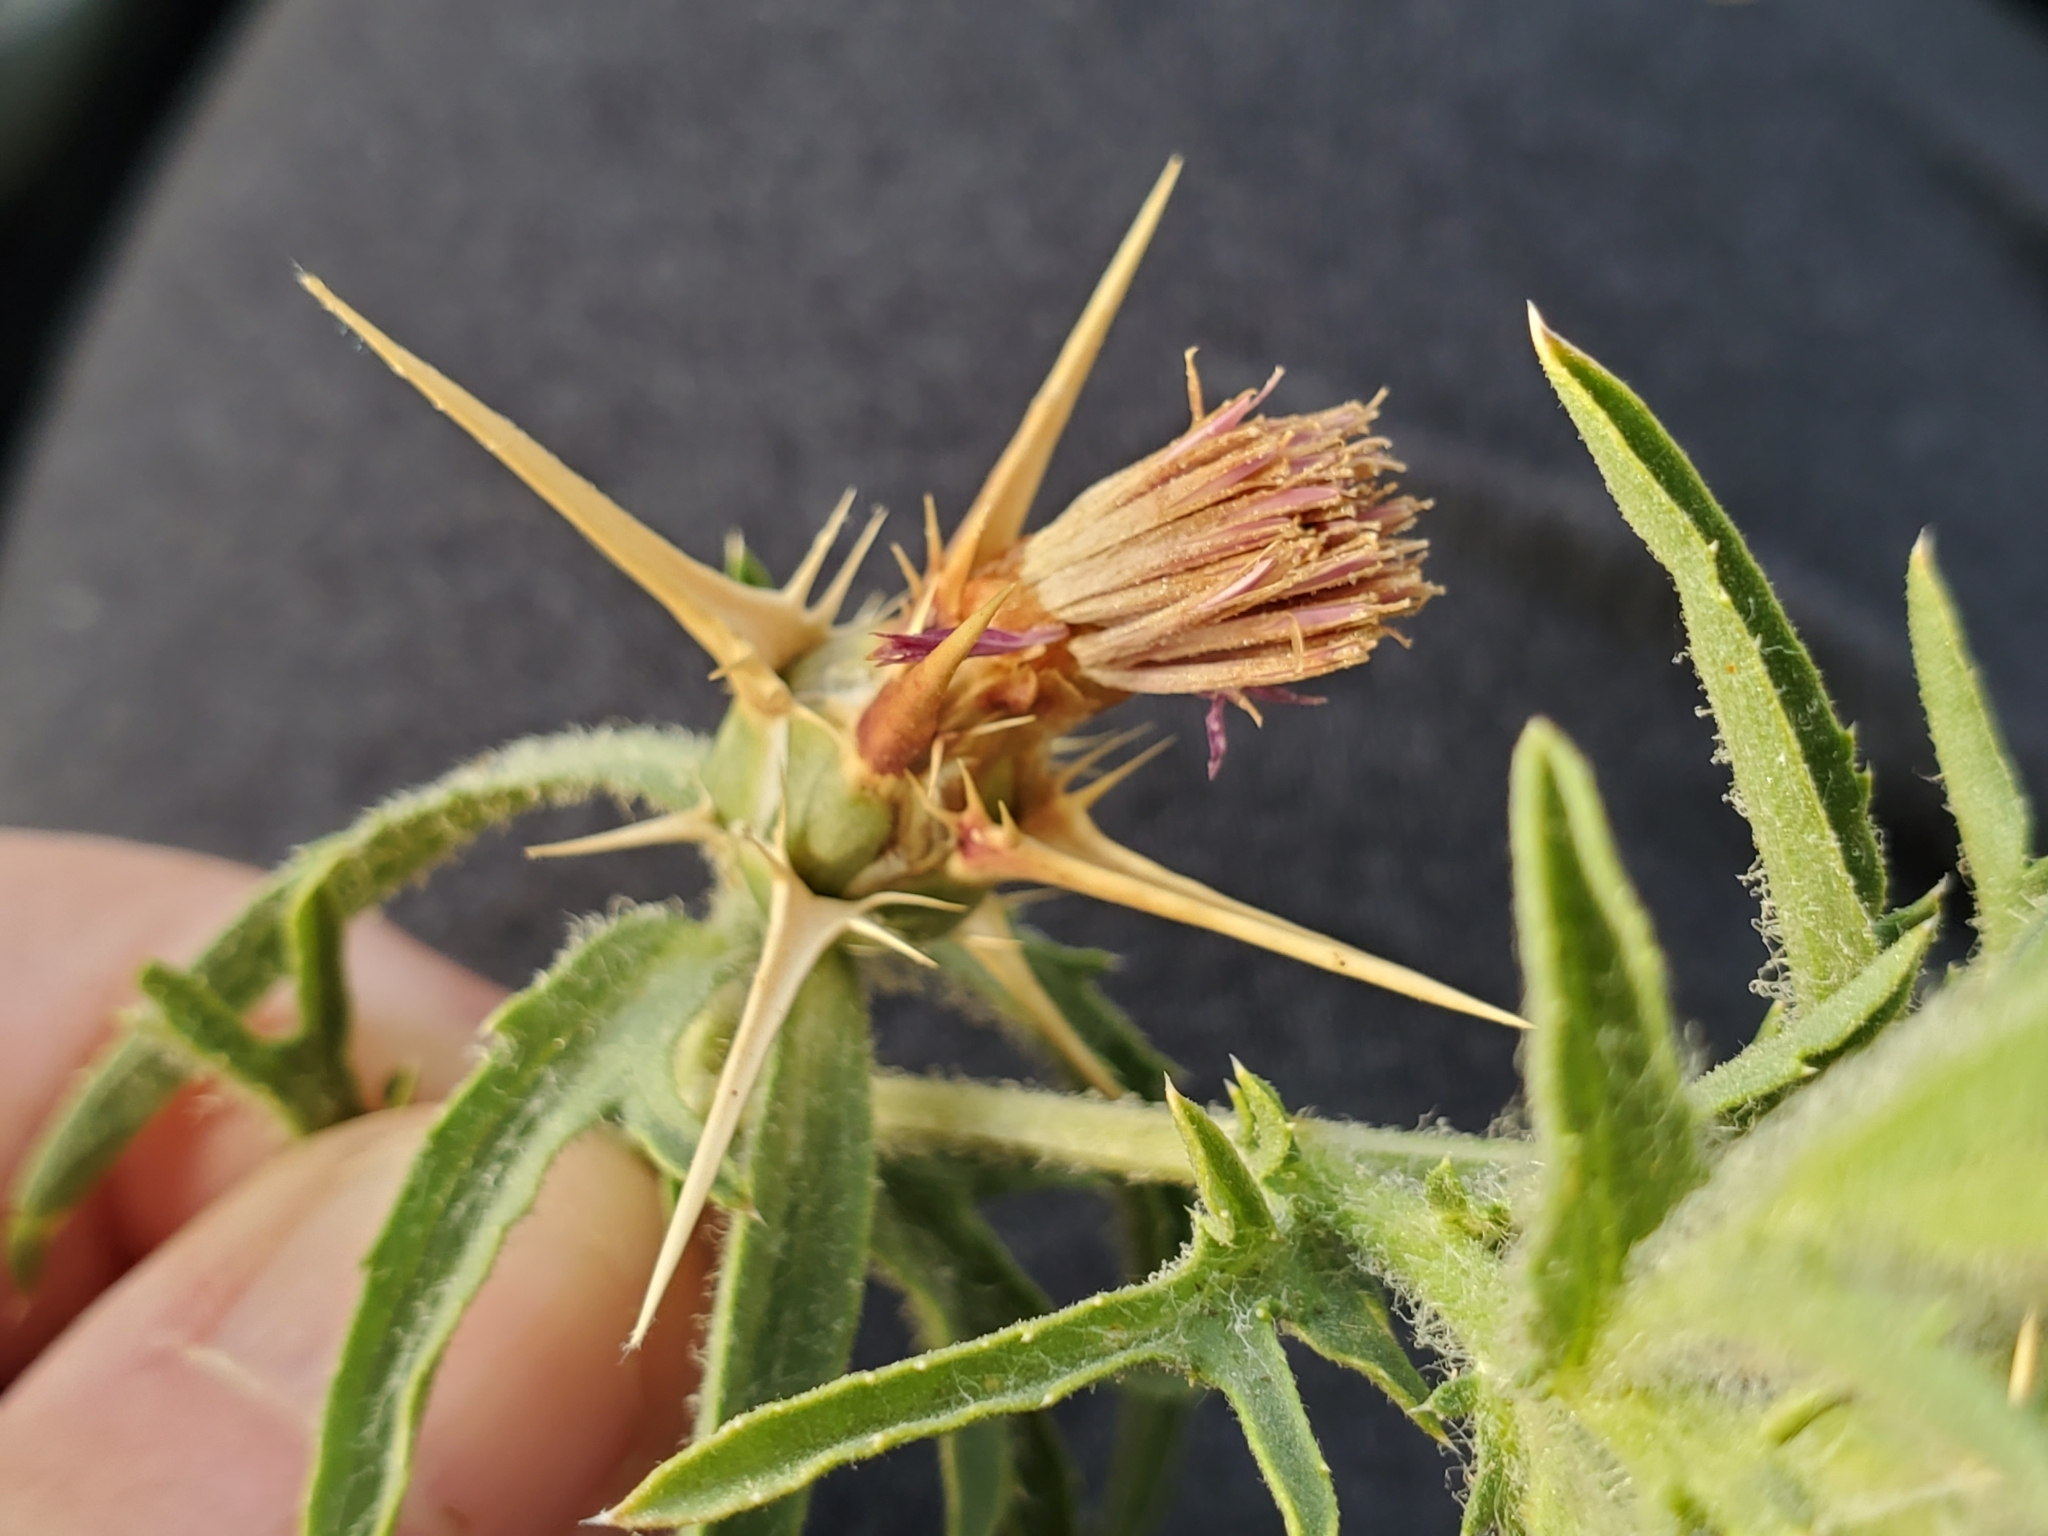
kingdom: Plantae
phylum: Tracheophyta
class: Magnoliopsida
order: Asterales
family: Asteraceae
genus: Centaurea
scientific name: Centaurea calcitrapa
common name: Red star-thistle
